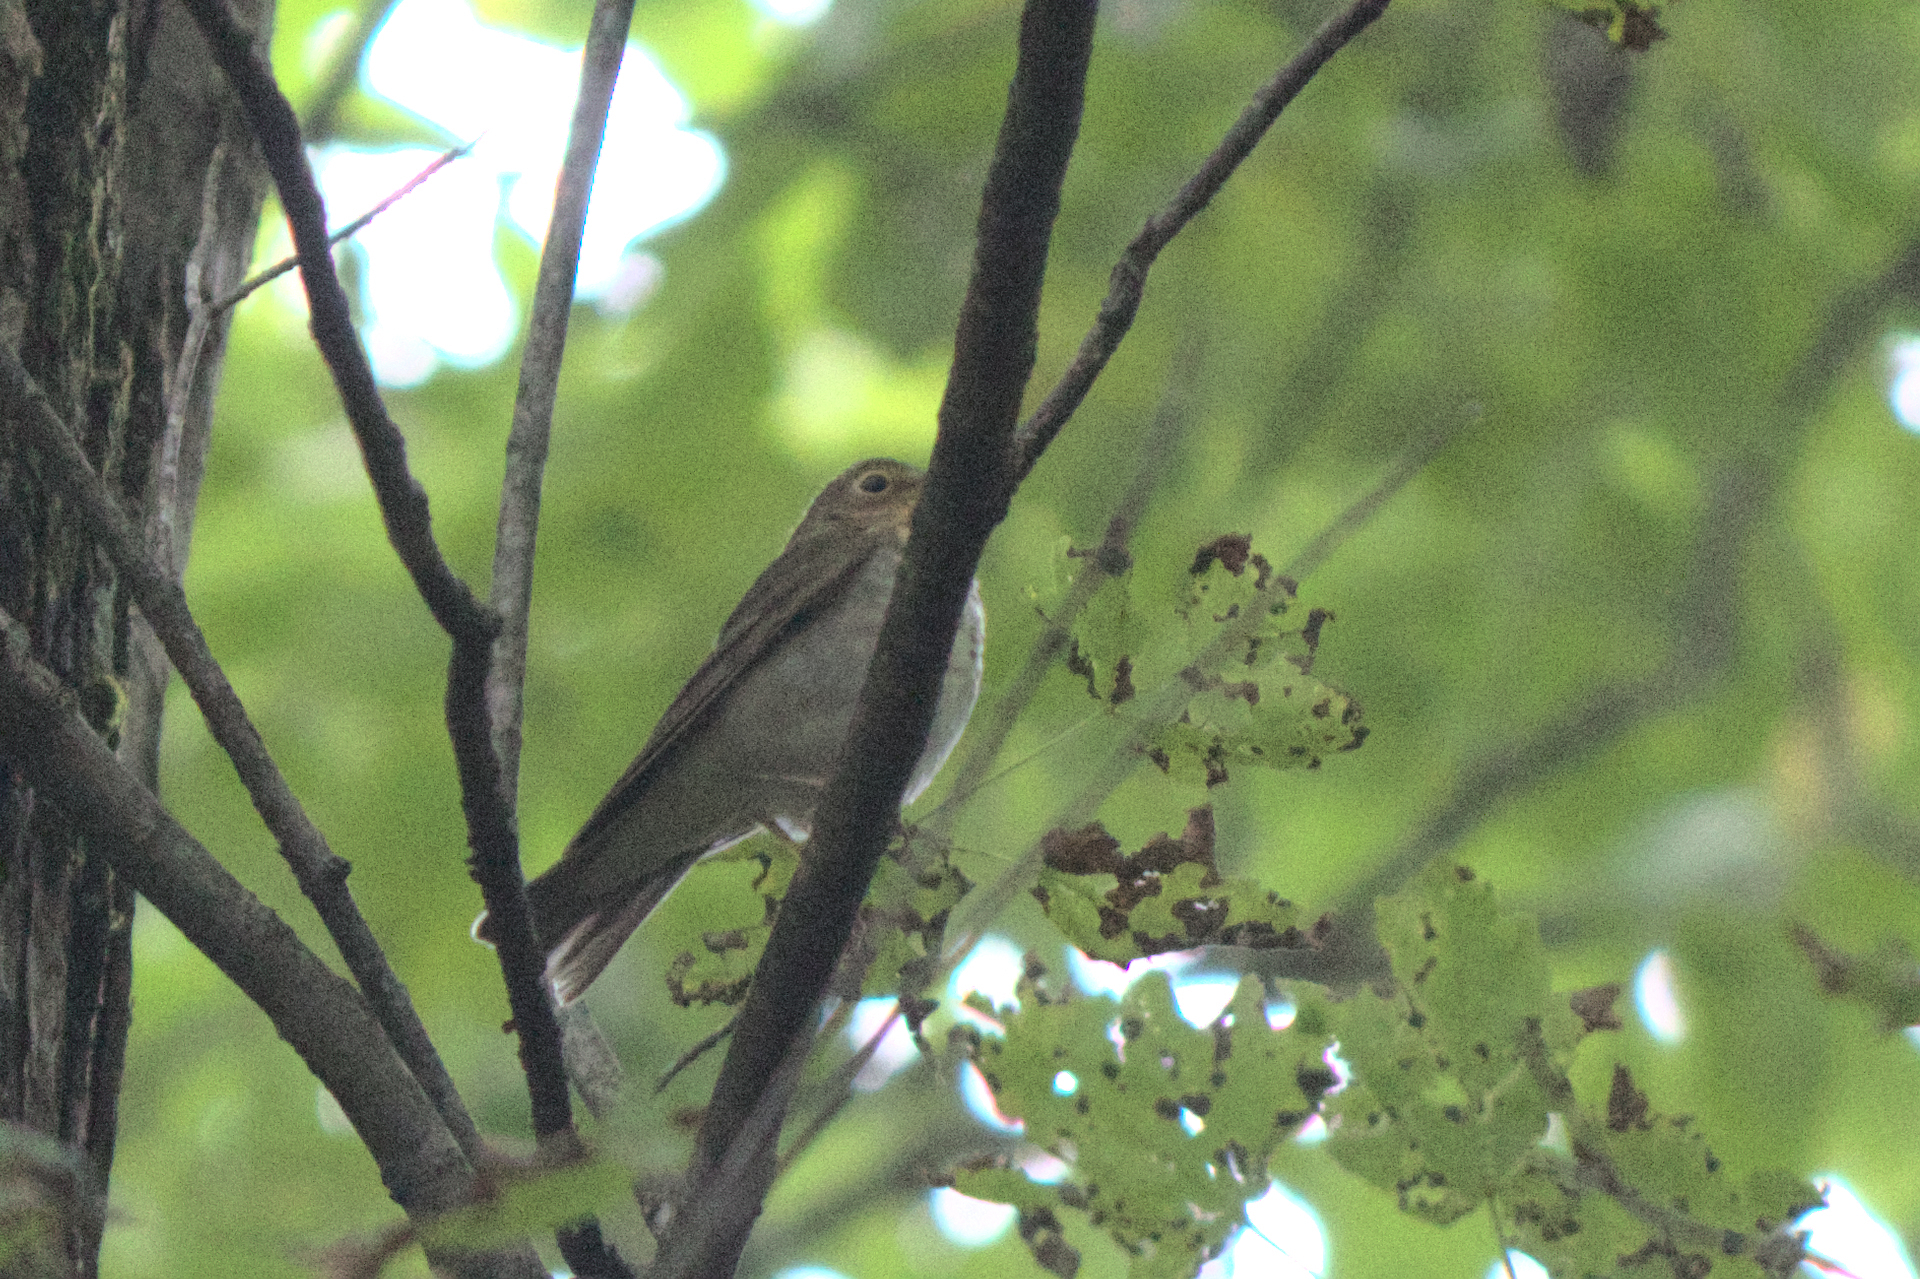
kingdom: Animalia
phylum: Chordata
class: Aves
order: Passeriformes
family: Turdidae
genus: Catharus
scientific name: Catharus ustulatus
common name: Swainson's thrush
